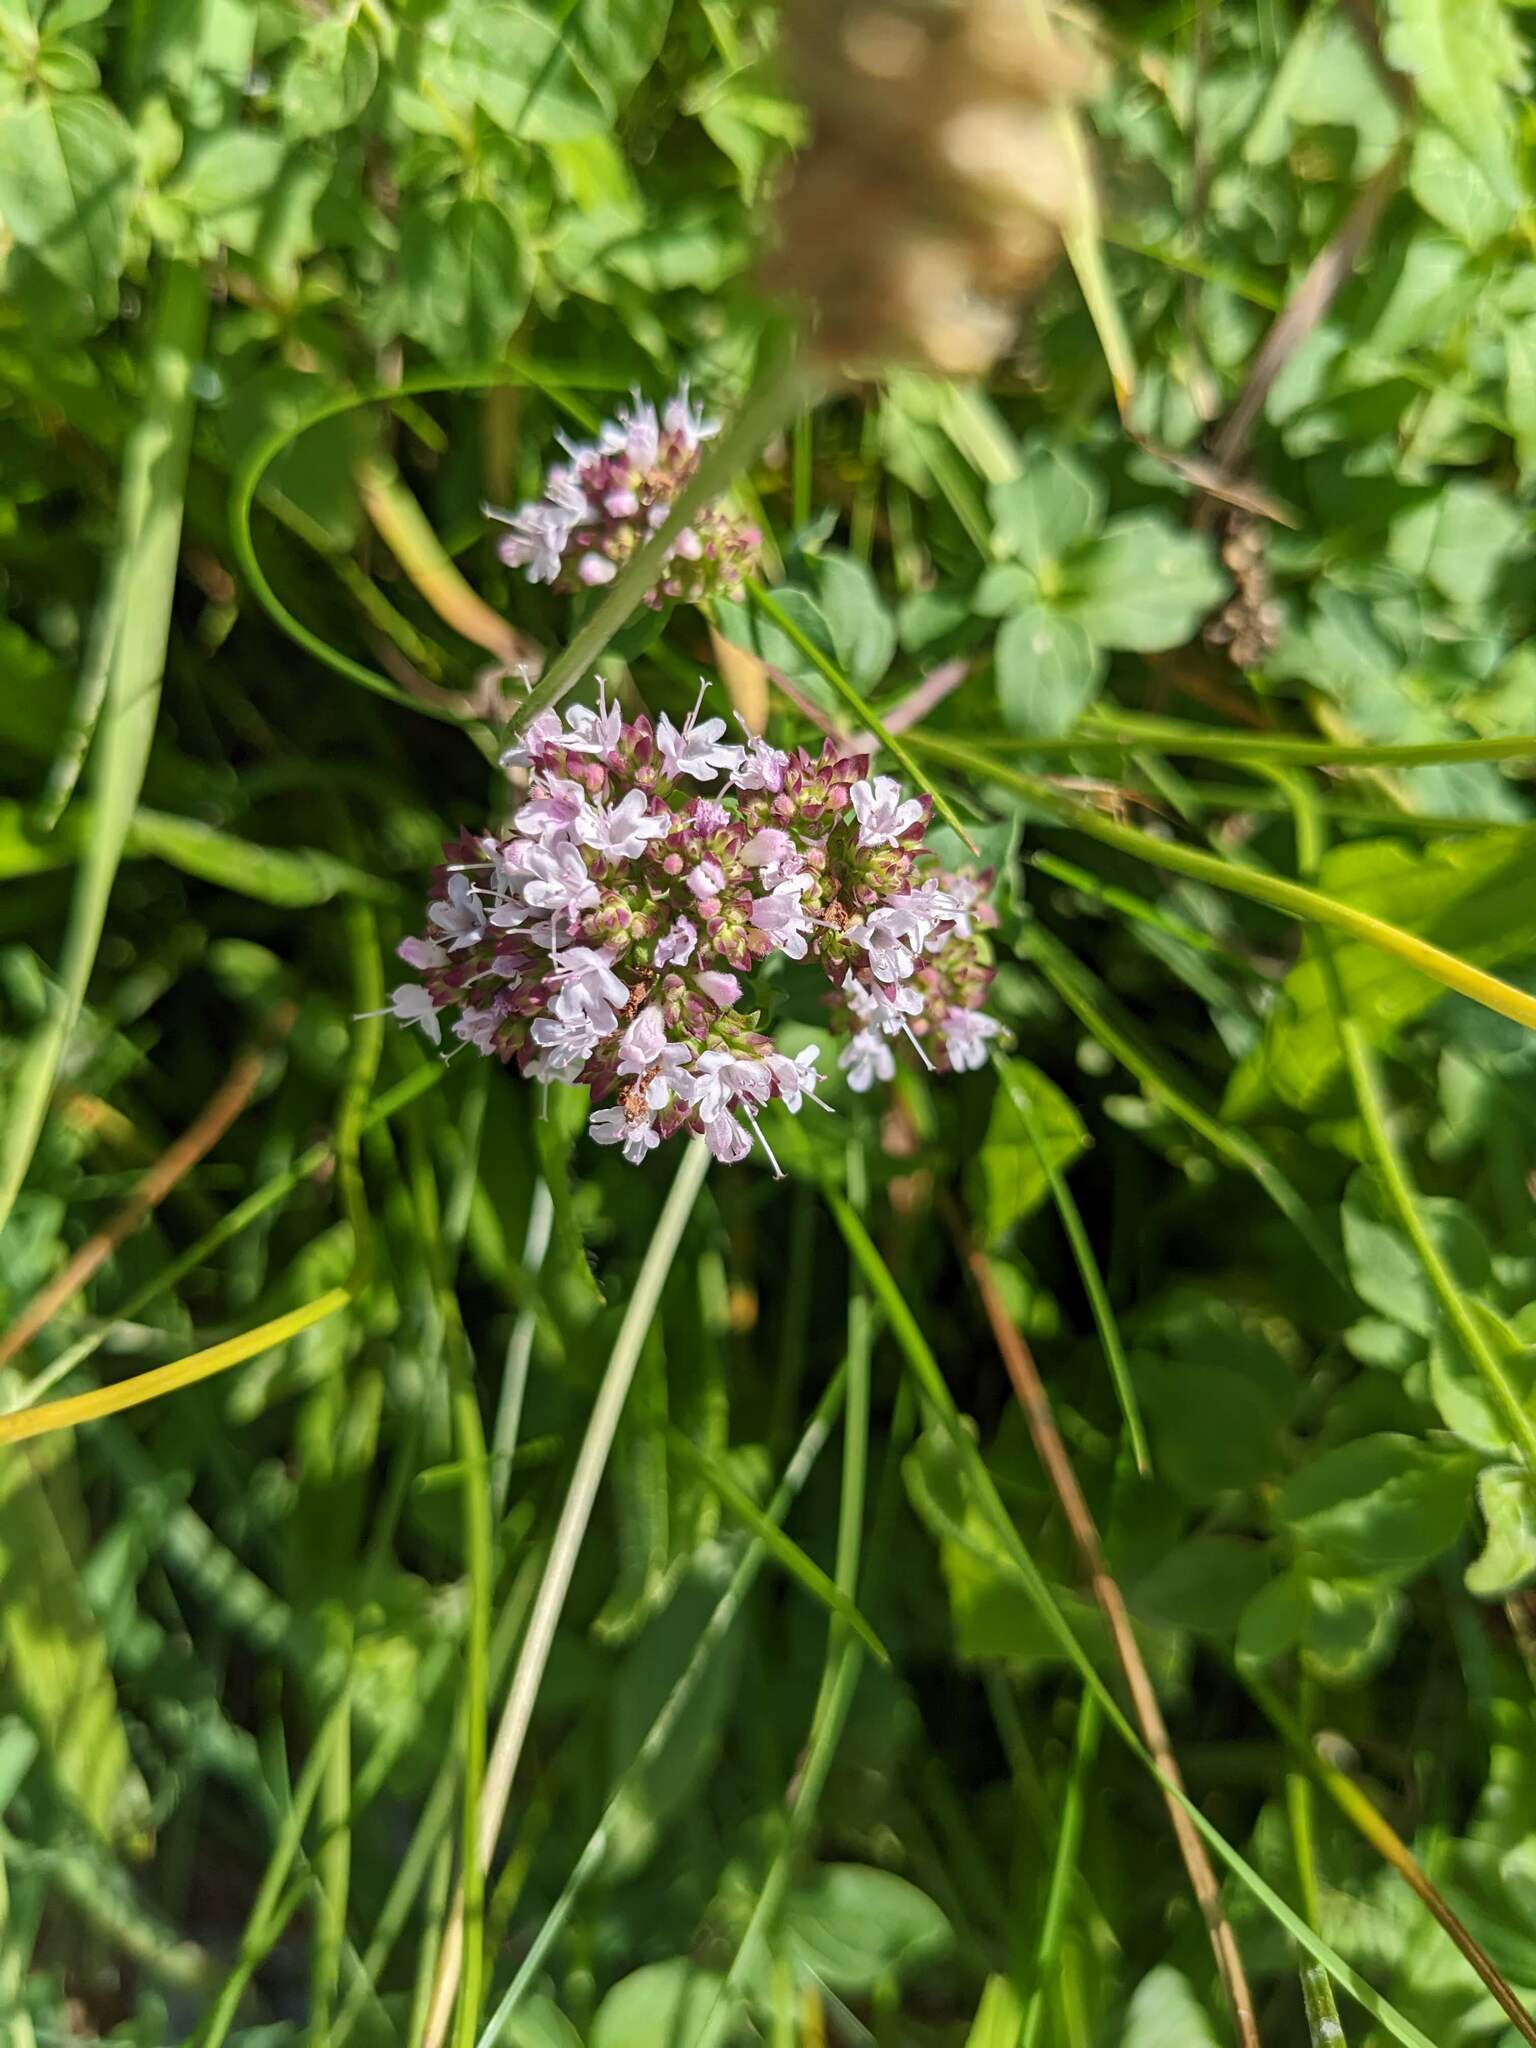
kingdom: Plantae
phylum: Tracheophyta
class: Magnoliopsida
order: Lamiales
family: Lamiaceae
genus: Origanum
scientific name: Origanum vulgare
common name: Wild marjoram
